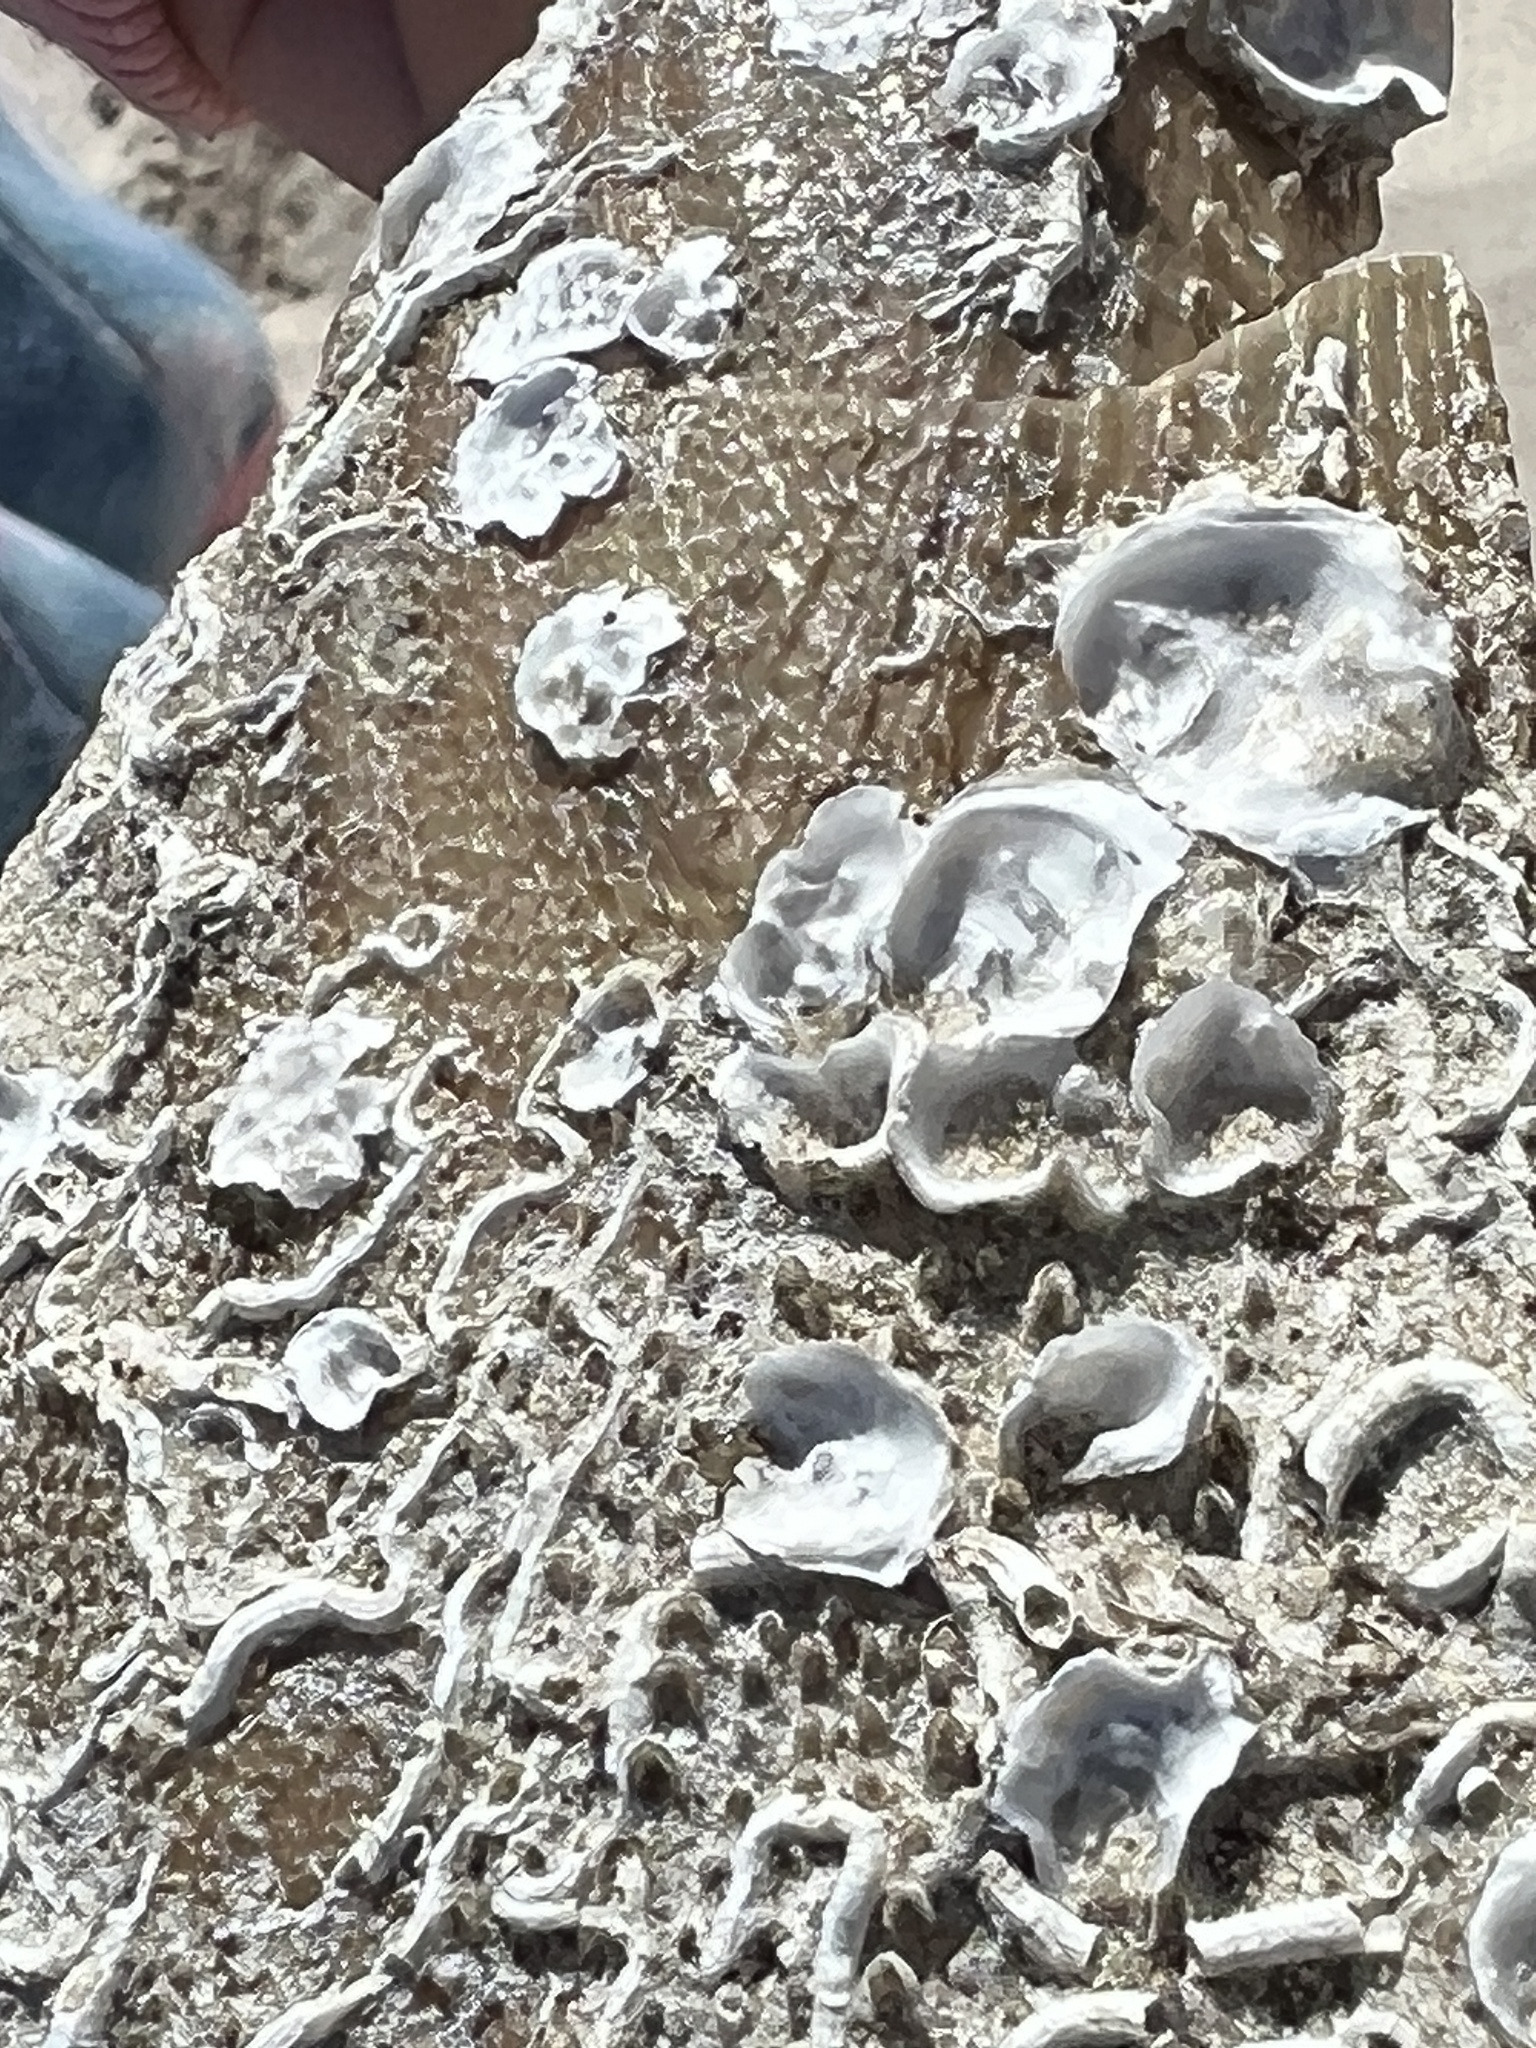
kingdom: Animalia
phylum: Mollusca
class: Bivalvia
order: Ostreida
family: Ostreidae
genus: Ostrea
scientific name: Ostrea equestris
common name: Crested oyster
